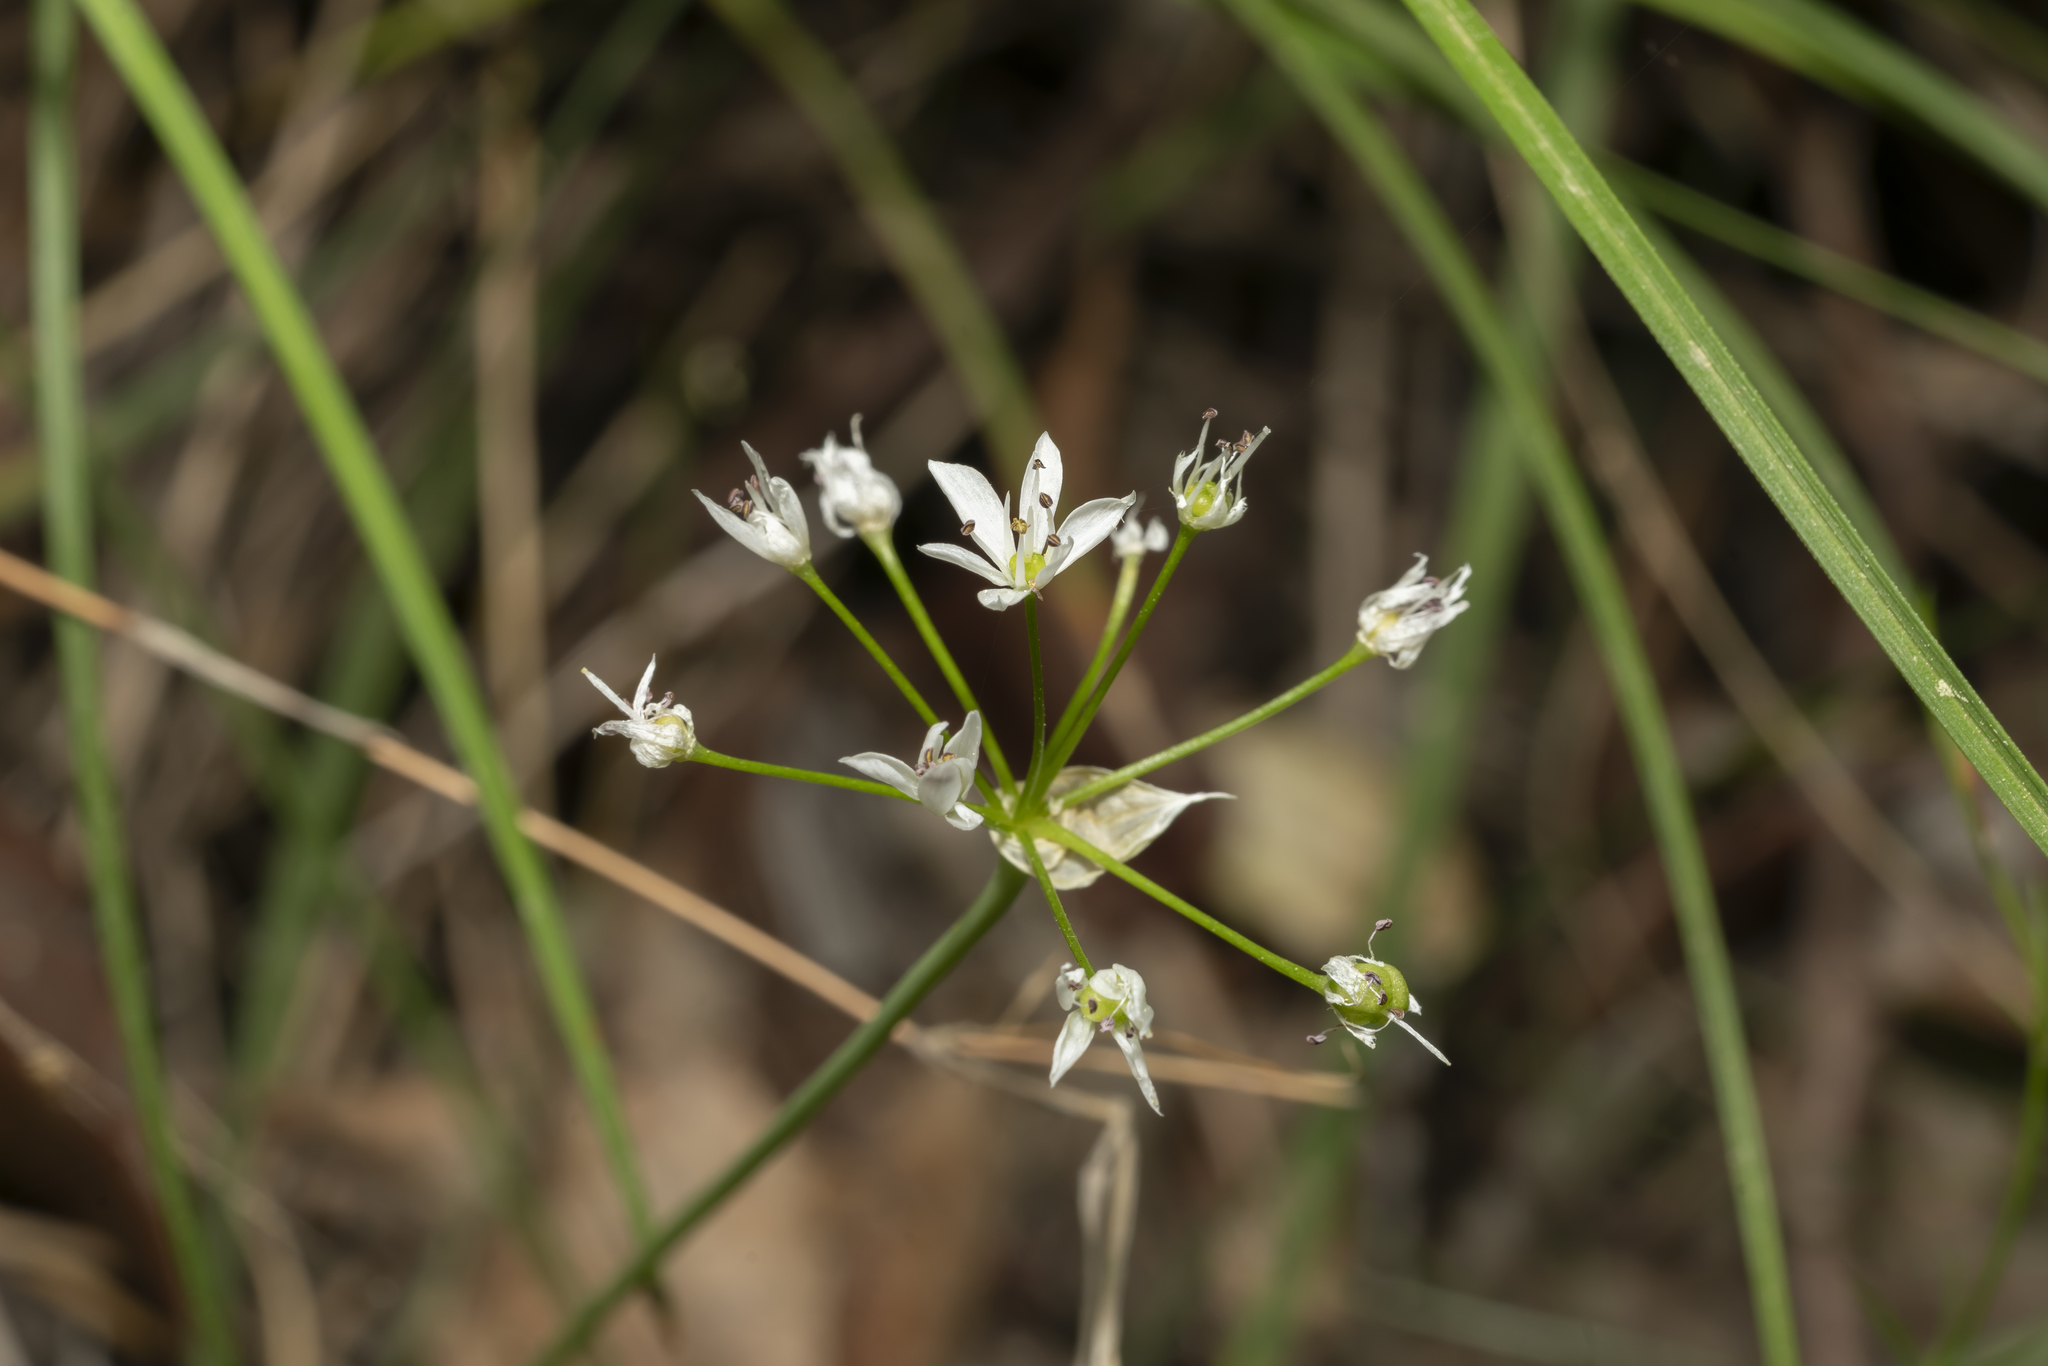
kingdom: Plantae
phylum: Tracheophyta
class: Liliopsida
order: Asparagales
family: Amaryllidaceae
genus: Allium
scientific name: Allium subhirsutum
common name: Hairy garlic
